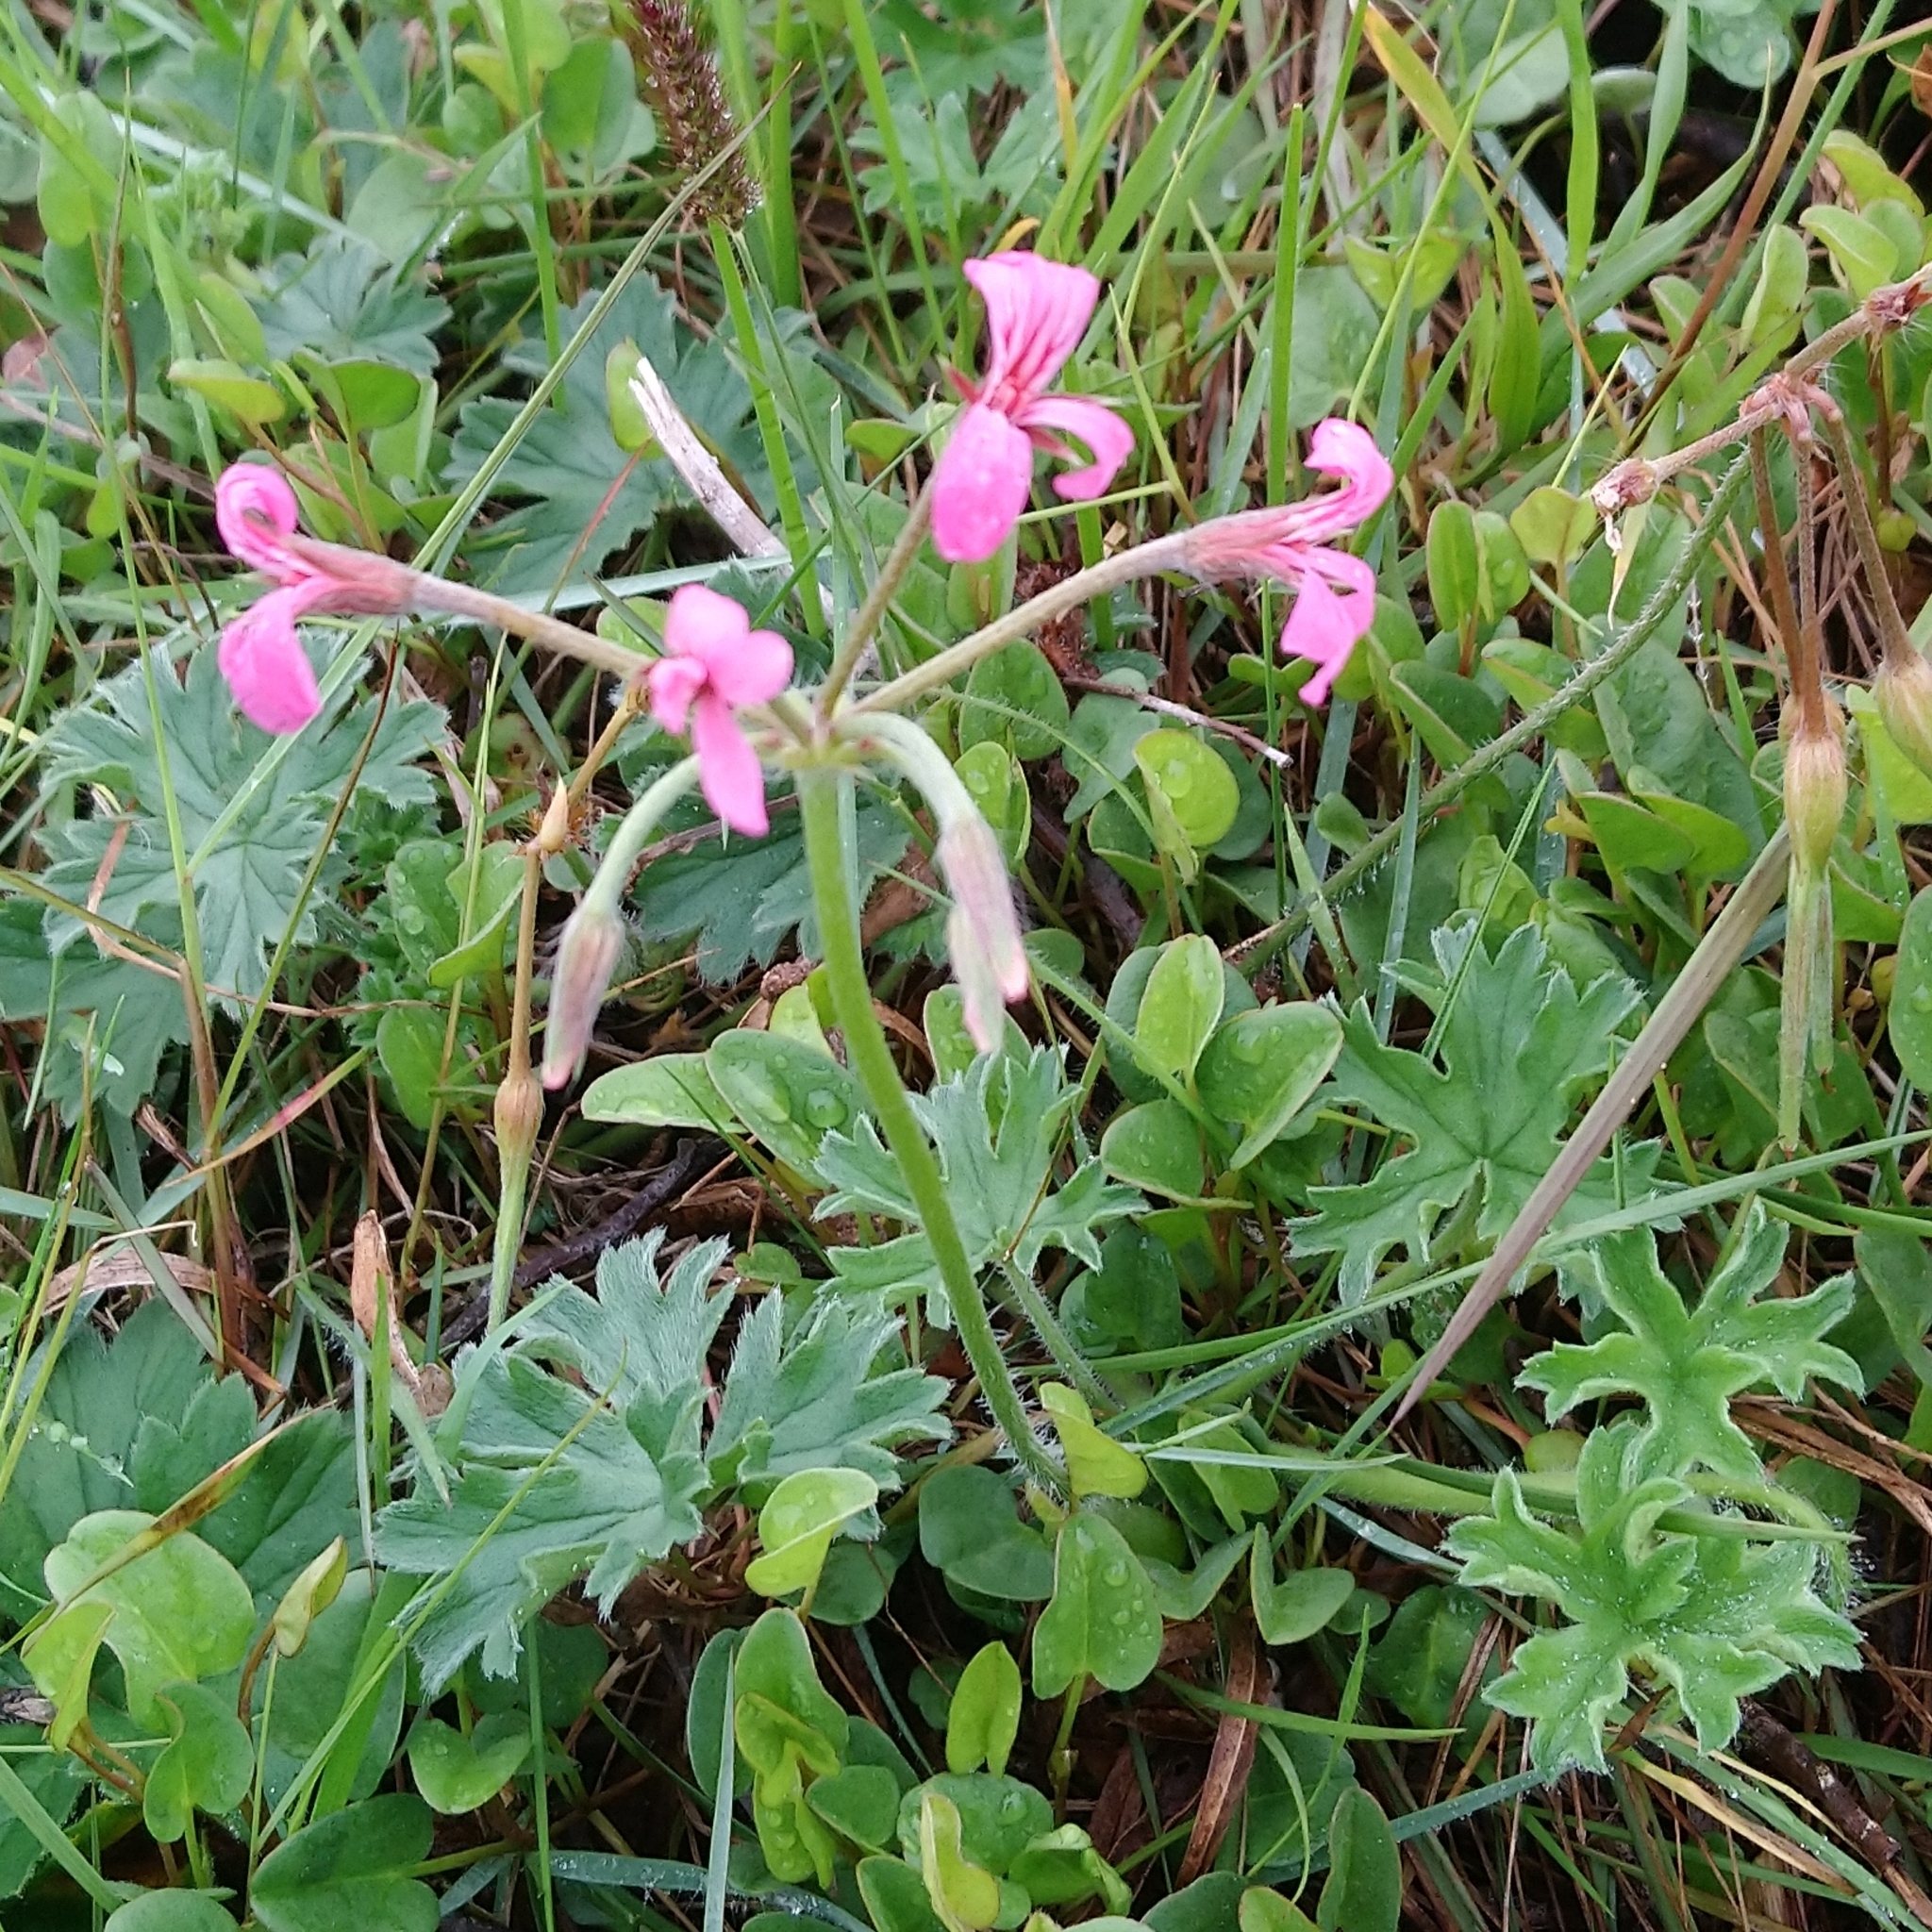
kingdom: Plantae
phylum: Tracheophyta
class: Magnoliopsida
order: Geraniales
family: Geraniaceae
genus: Pelargonium
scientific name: Pelargonium alchemilloides
